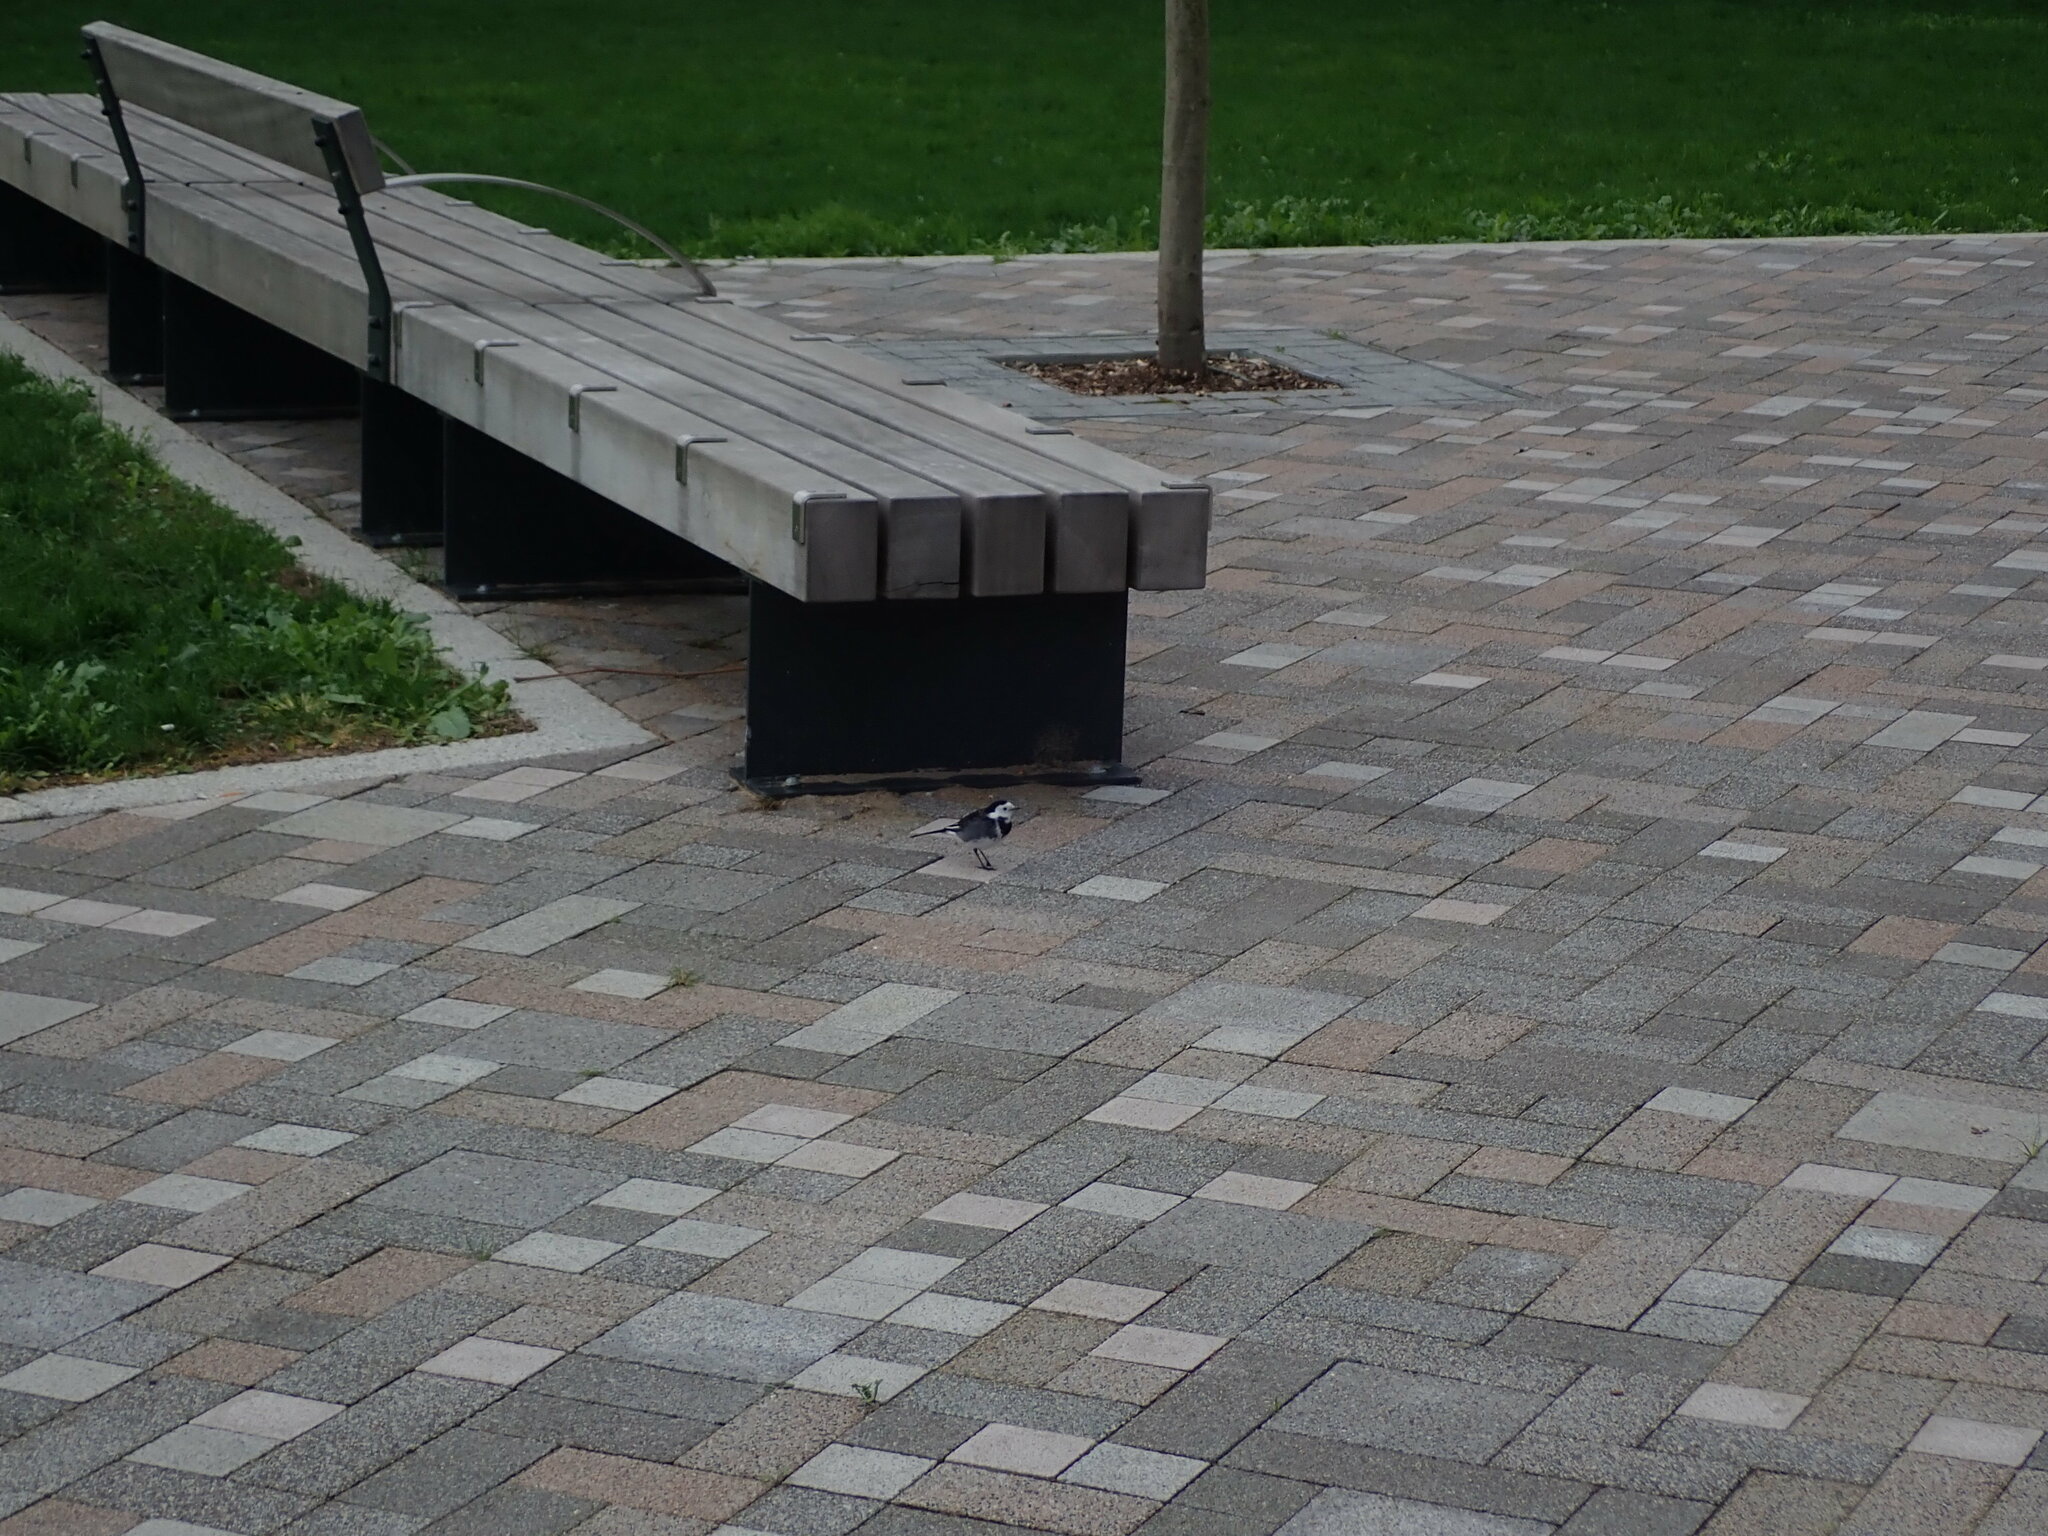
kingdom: Animalia
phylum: Chordata
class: Aves
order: Passeriformes
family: Motacillidae
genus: Motacilla
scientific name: Motacilla alba
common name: White wagtail
